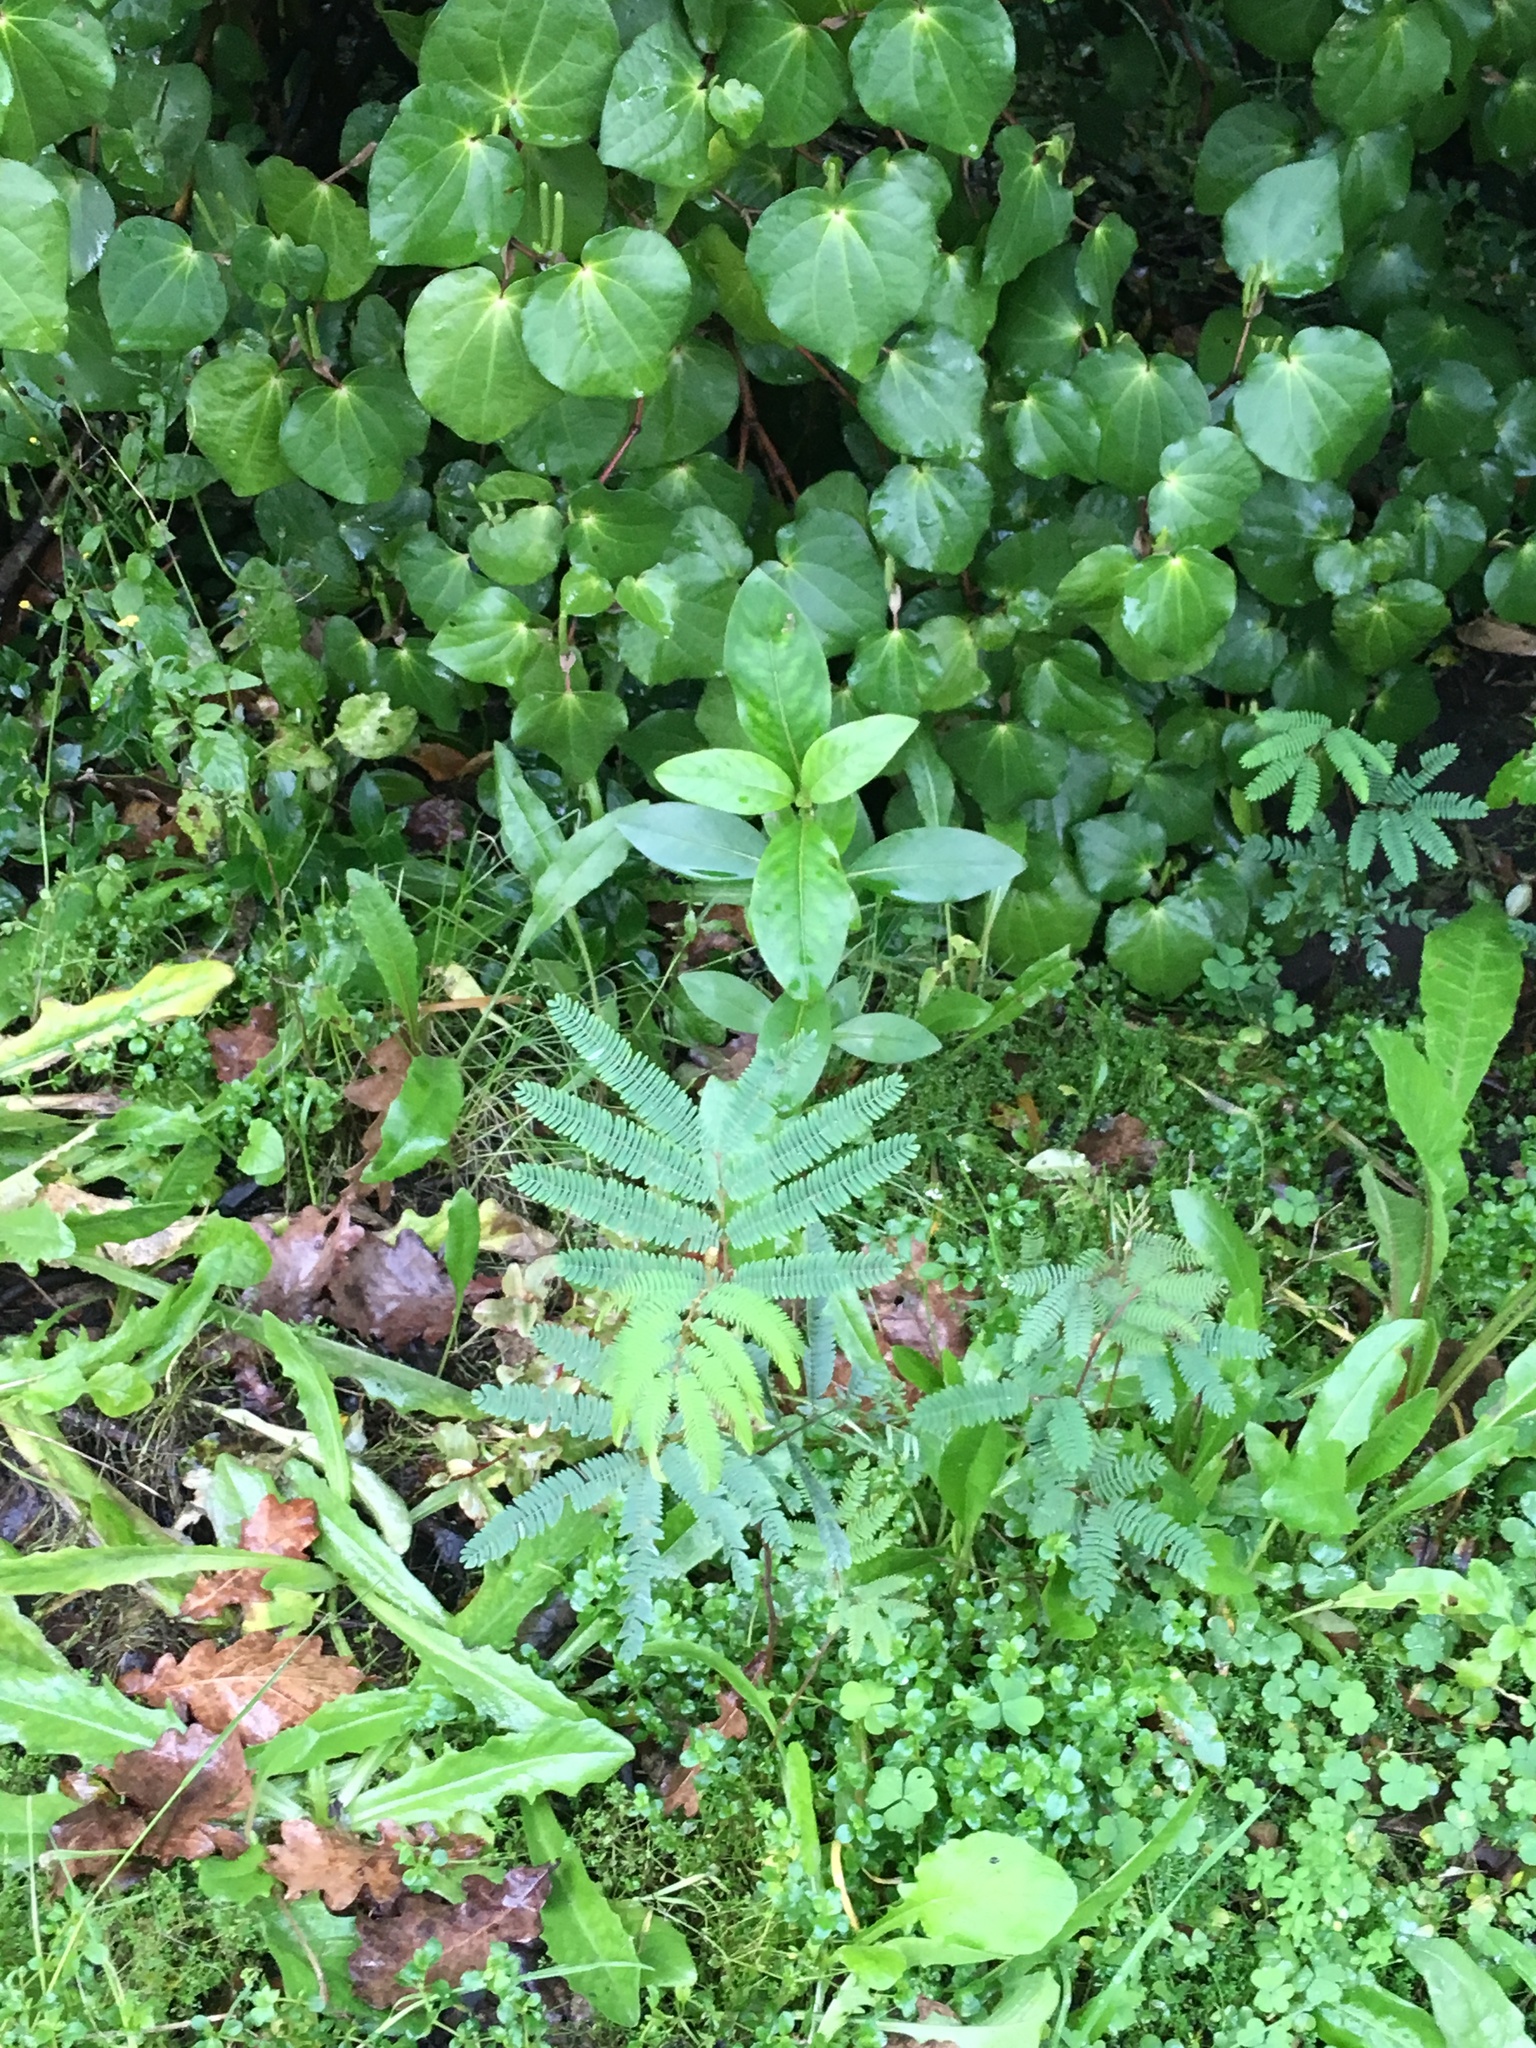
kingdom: Plantae
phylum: Tracheophyta
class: Magnoliopsida
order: Fabales
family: Fabaceae
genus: Paraserianthes
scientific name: Paraserianthes lophantha
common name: Plume albizia
